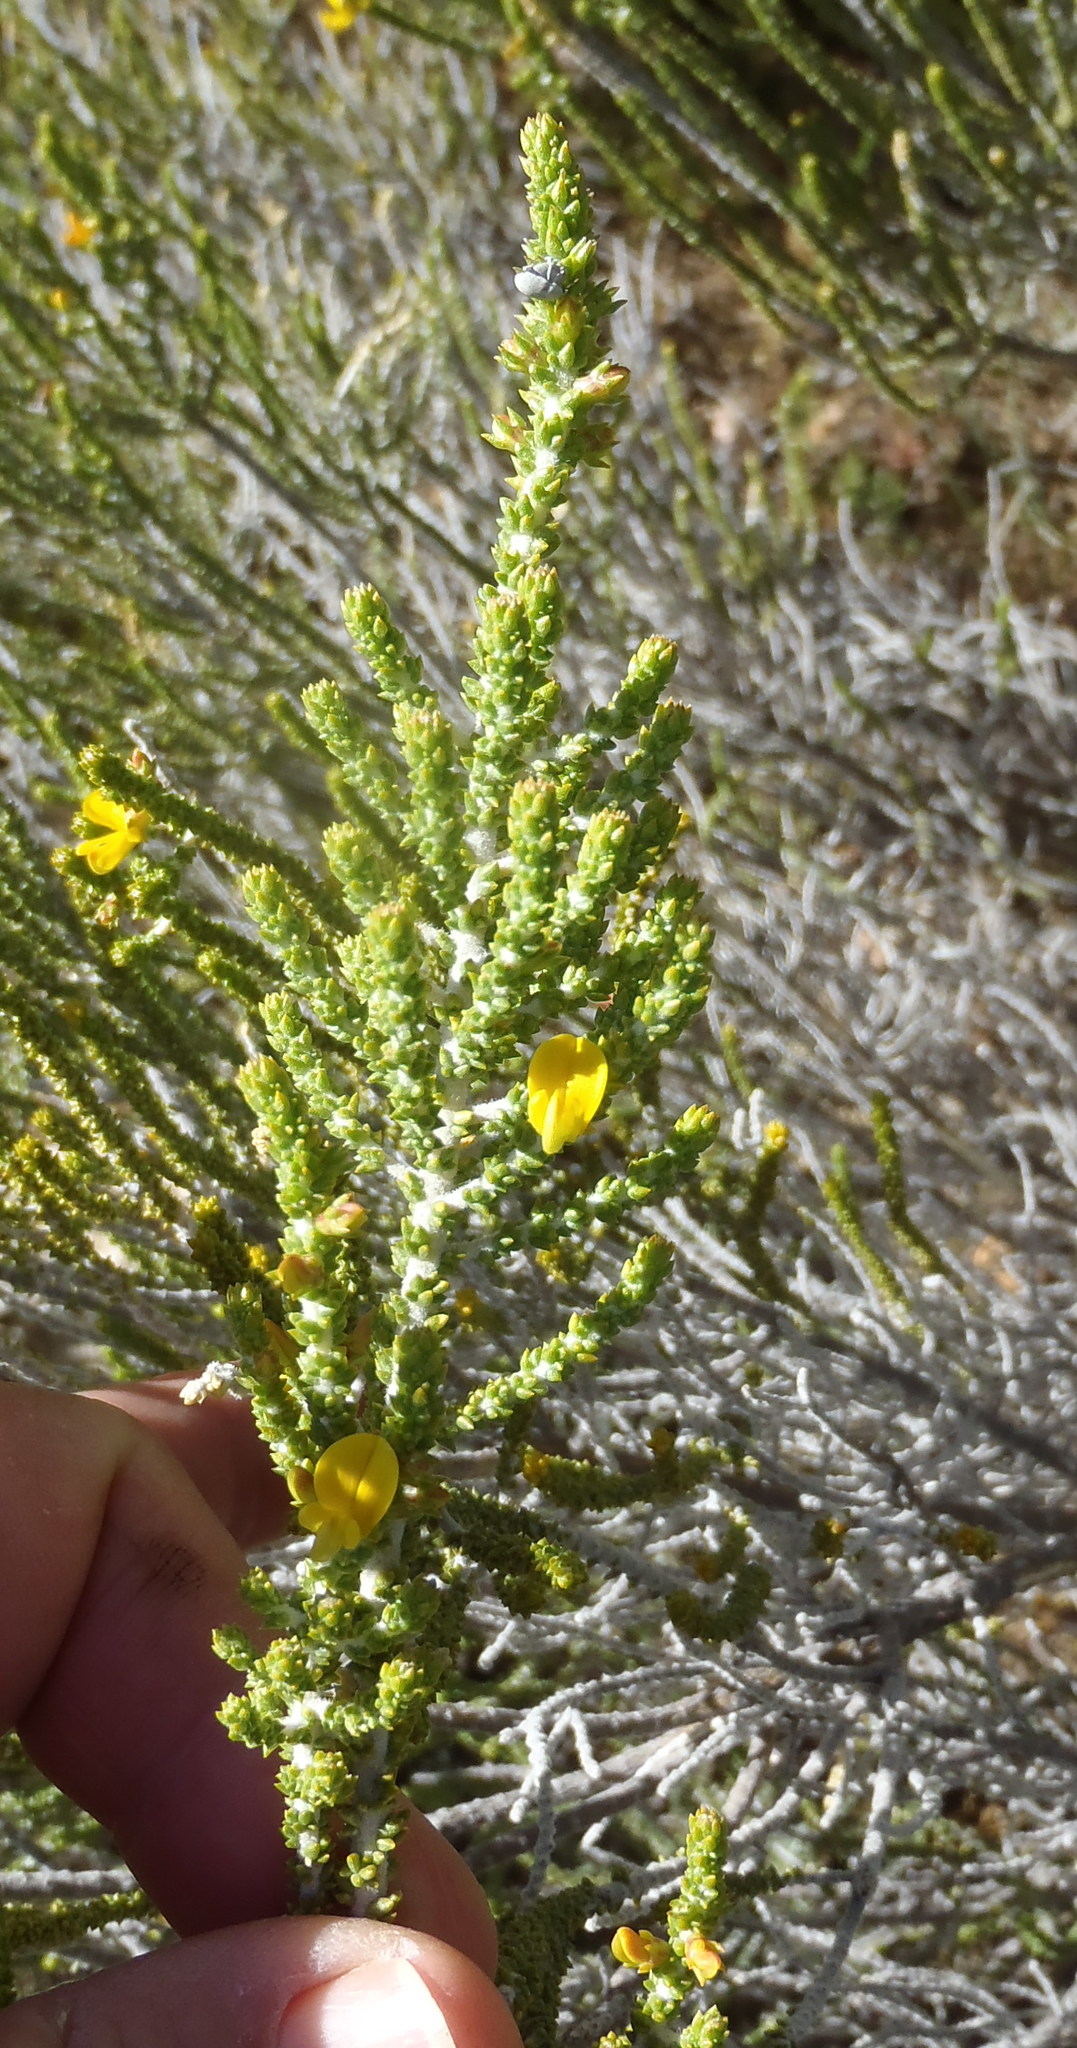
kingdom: Plantae
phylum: Tracheophyta
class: Magnoliopsida
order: Fabales
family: Fabaceae
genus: Aspalathus
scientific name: Aspalathus pinguis
